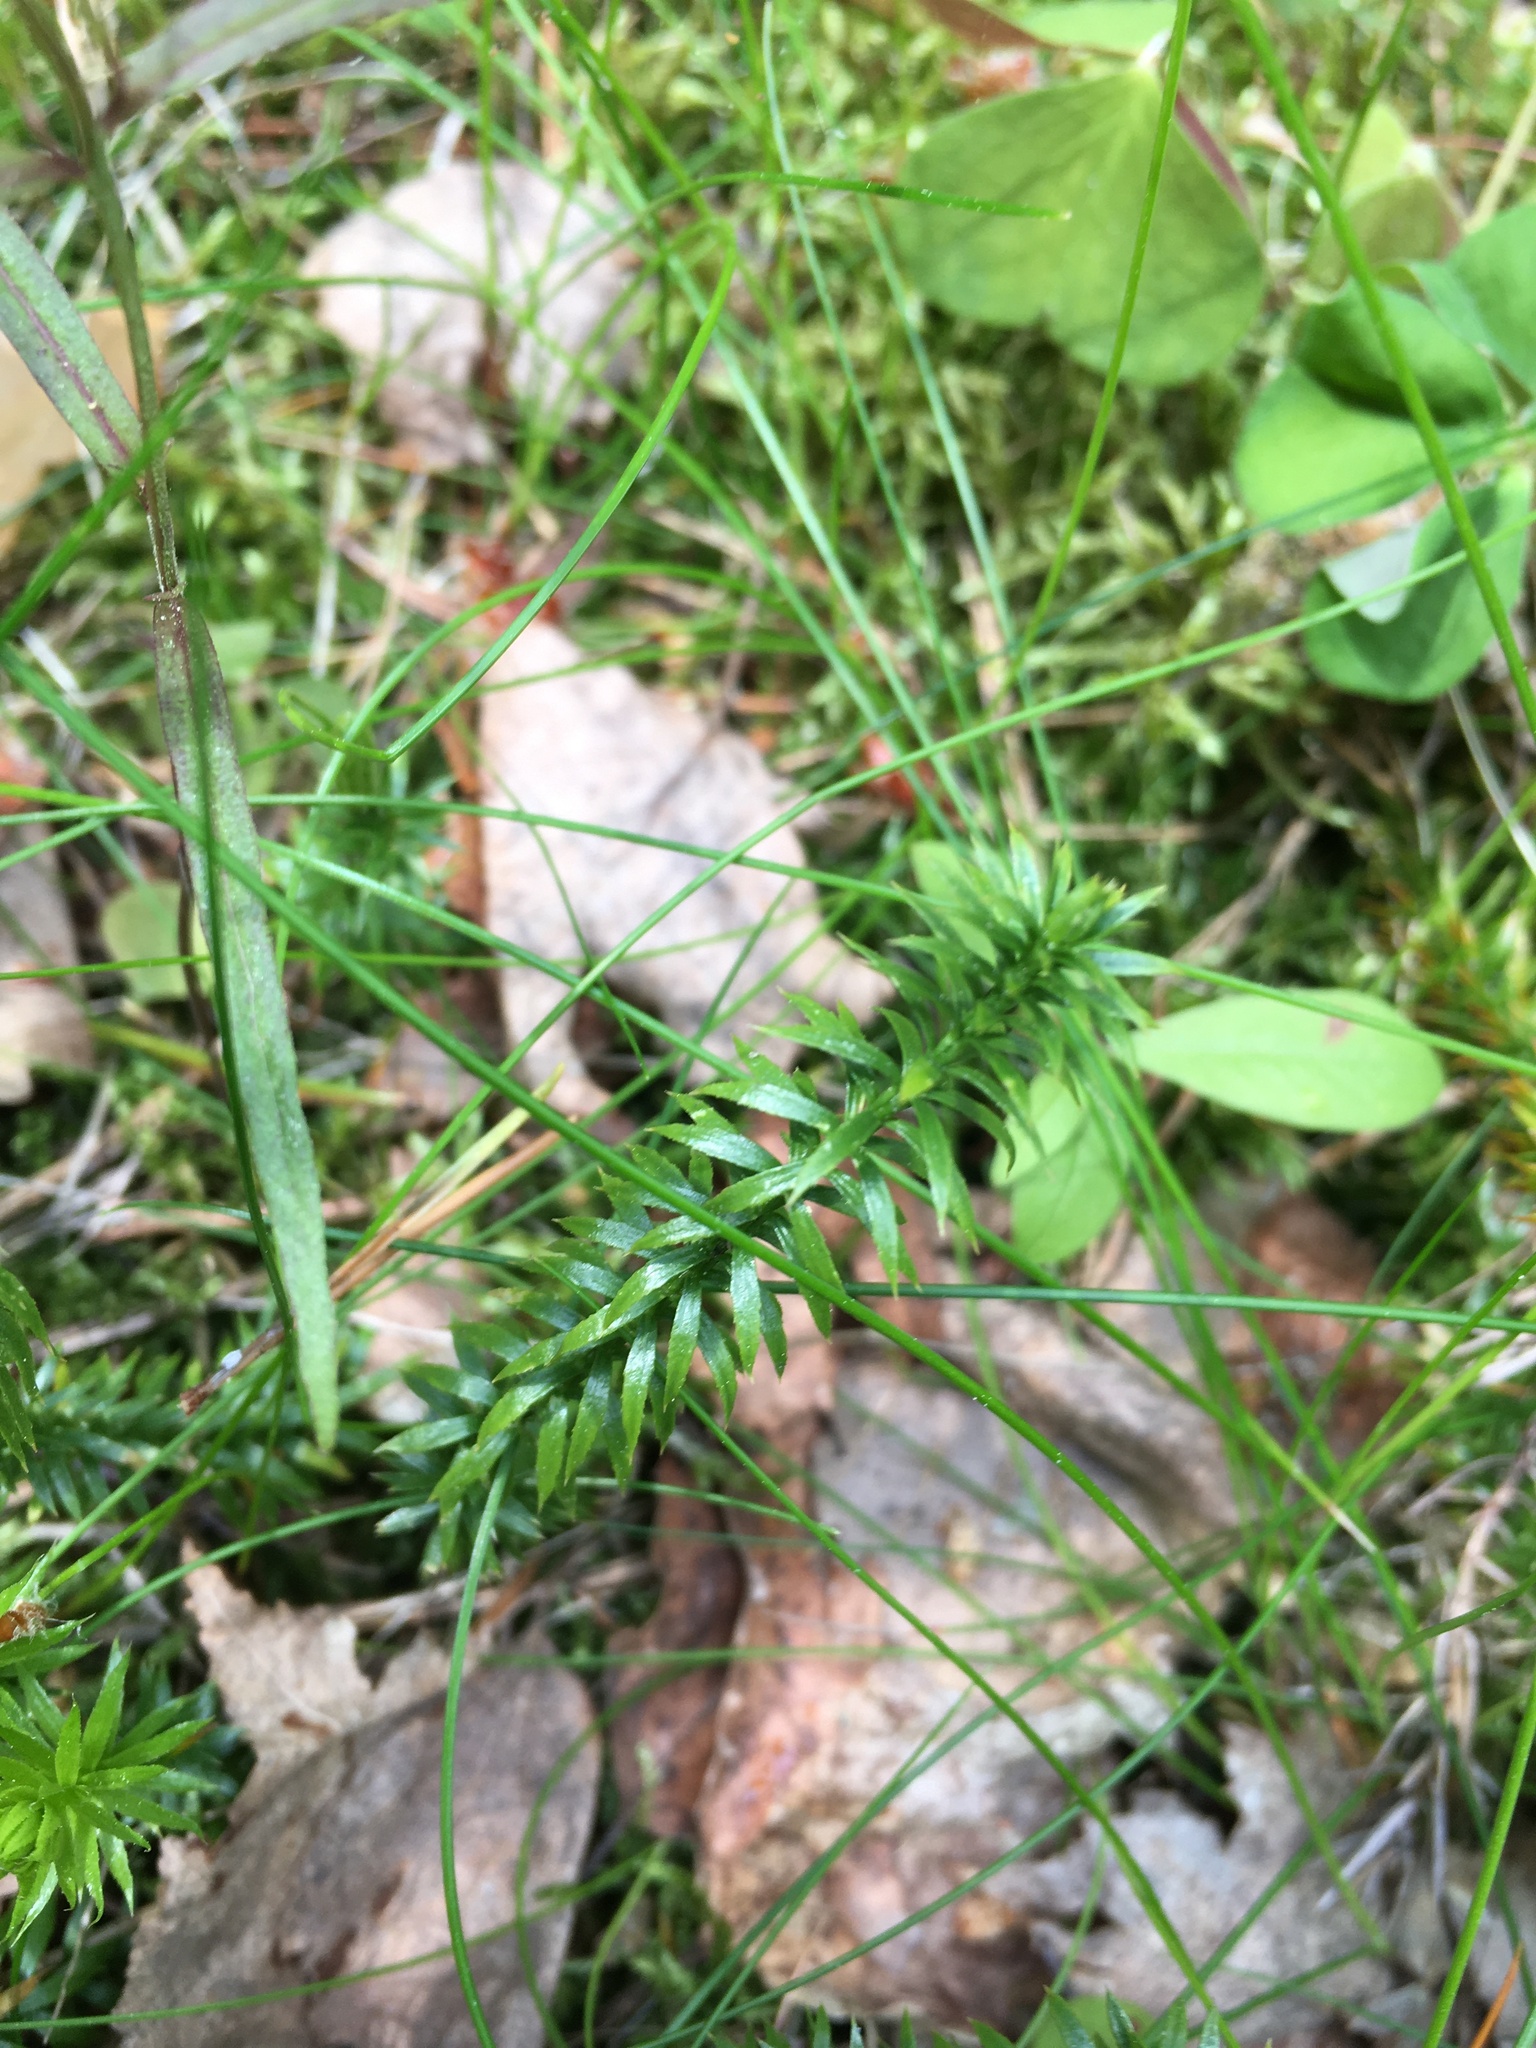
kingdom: Plantae
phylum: Tracheophyta
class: Lycopodiopsida
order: Lycopodiales
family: Lycopodiaceae
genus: Spinulum
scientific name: Spinulum annotinum
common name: Interrupted club-moss
